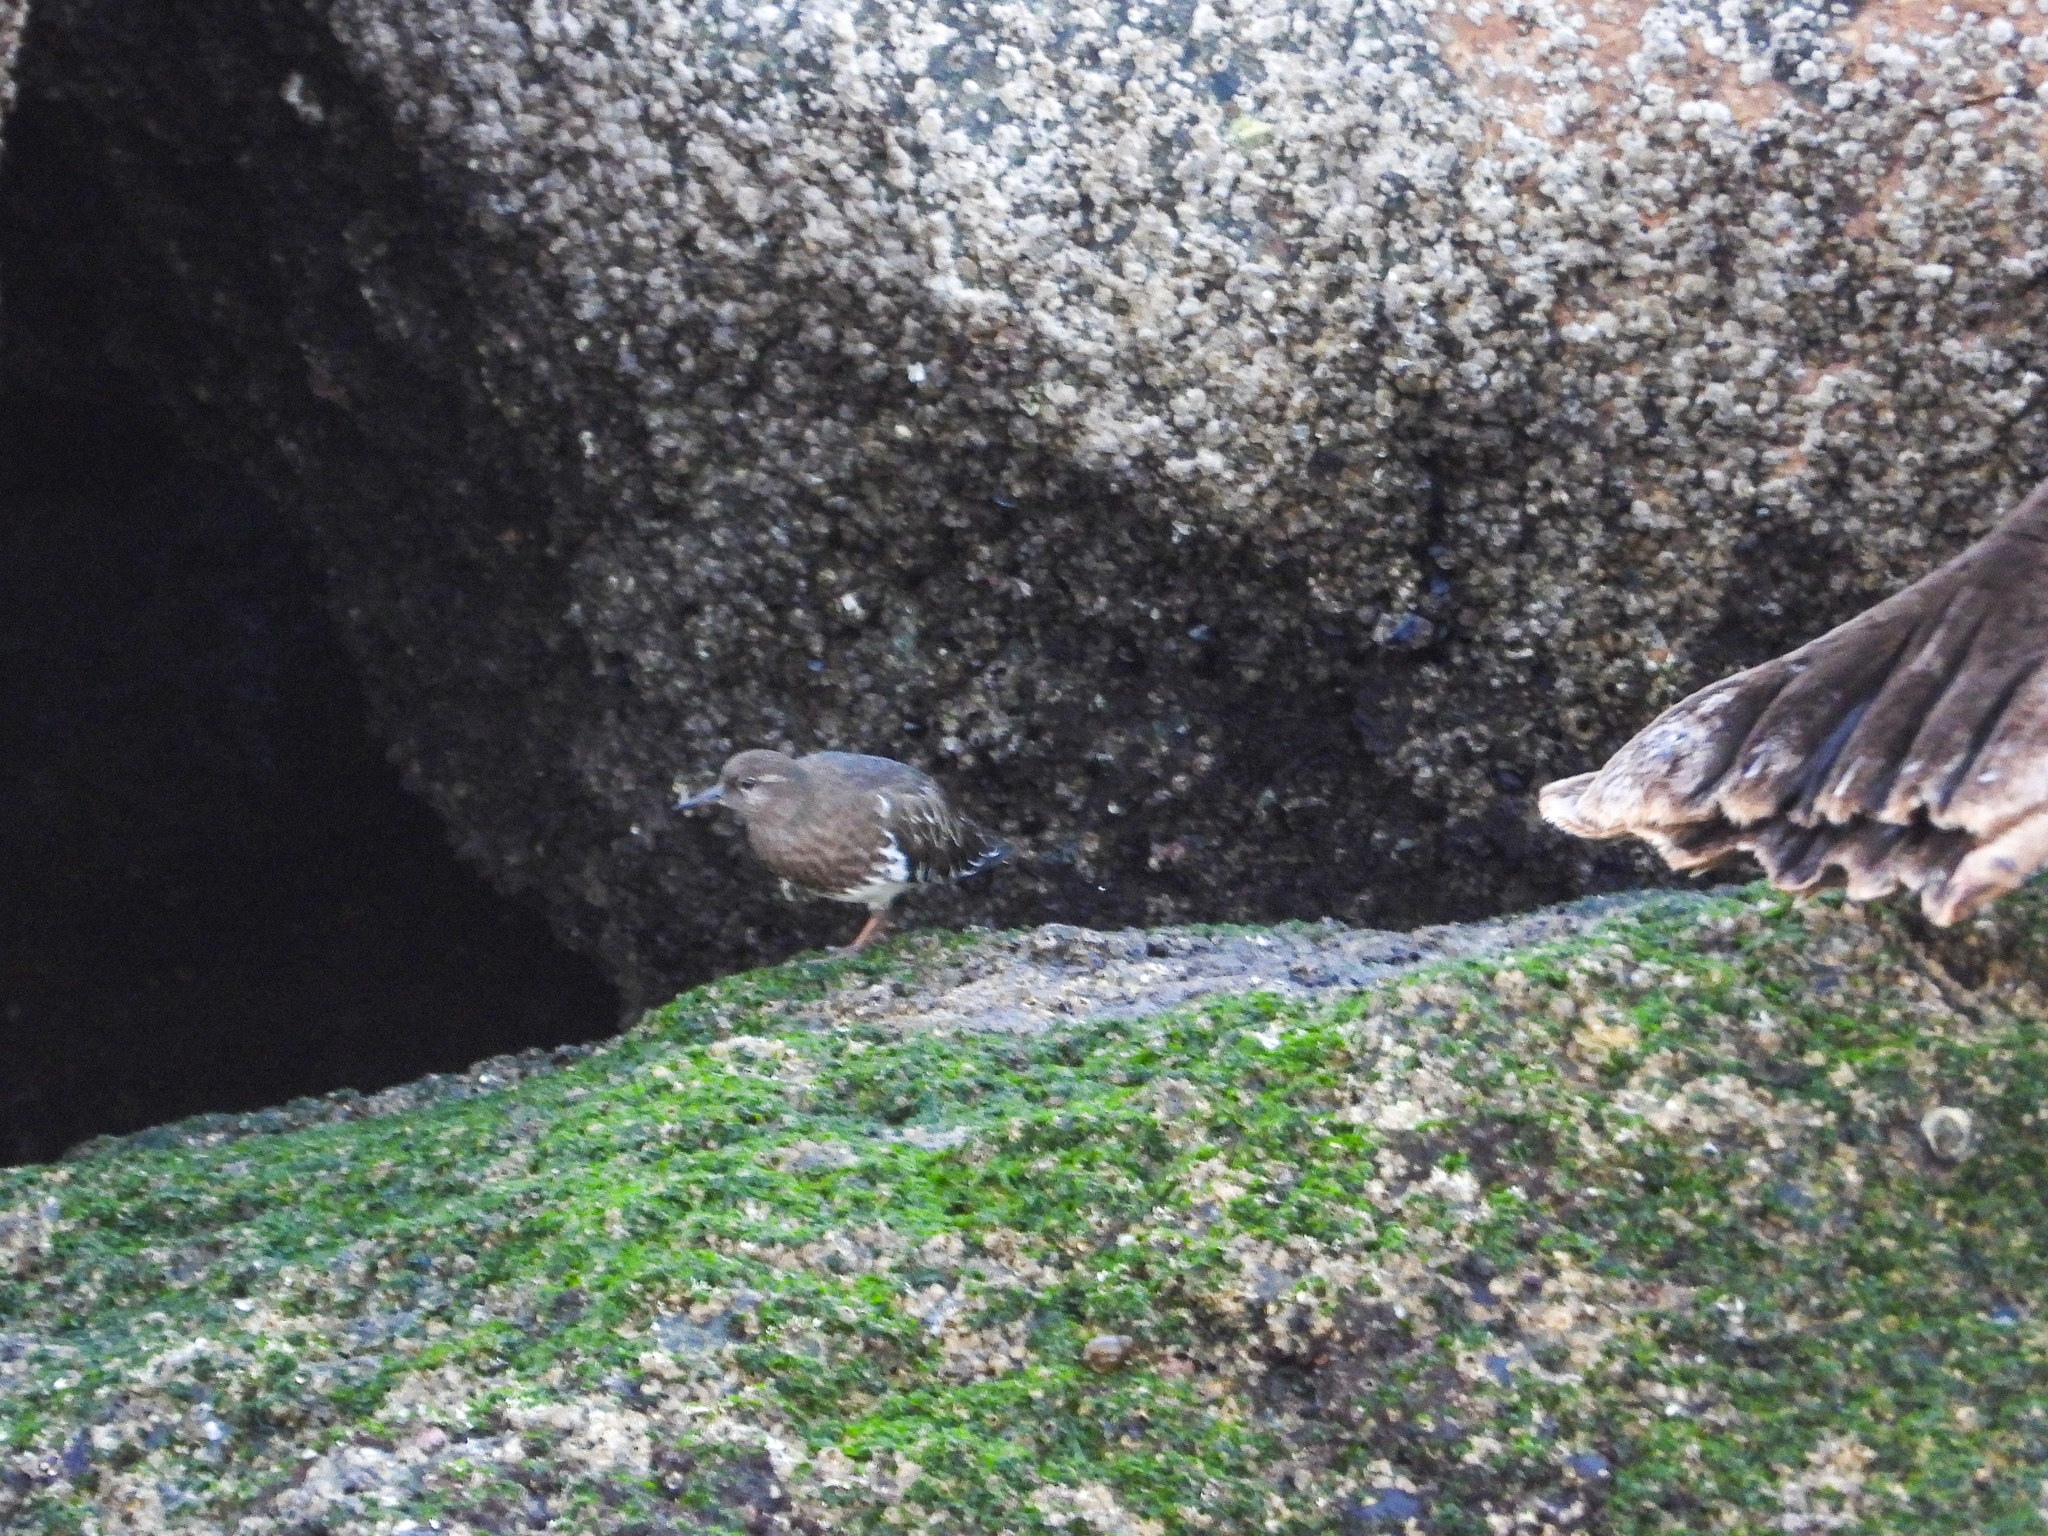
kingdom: Animalia
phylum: Chordata
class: Aves
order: Charadriiformes
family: Scolopacidae
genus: Arenaria
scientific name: Arenaria melanocephala
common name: Black turnstone
